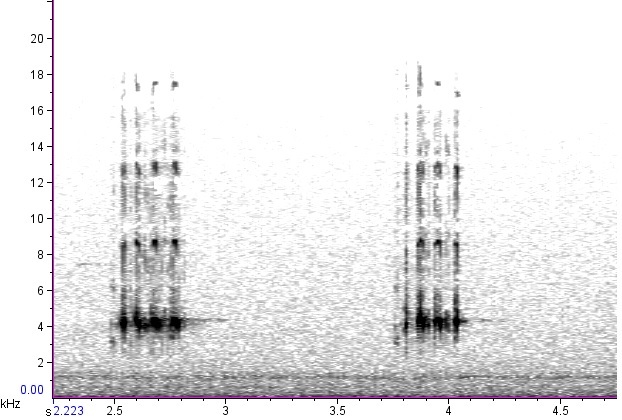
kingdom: Animalia
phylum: Arthropoda
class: Insecta
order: Orthoptera
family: Gryllidae
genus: Gryllus
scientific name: Gryllus pennsylvanicus
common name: Fall field cricket
